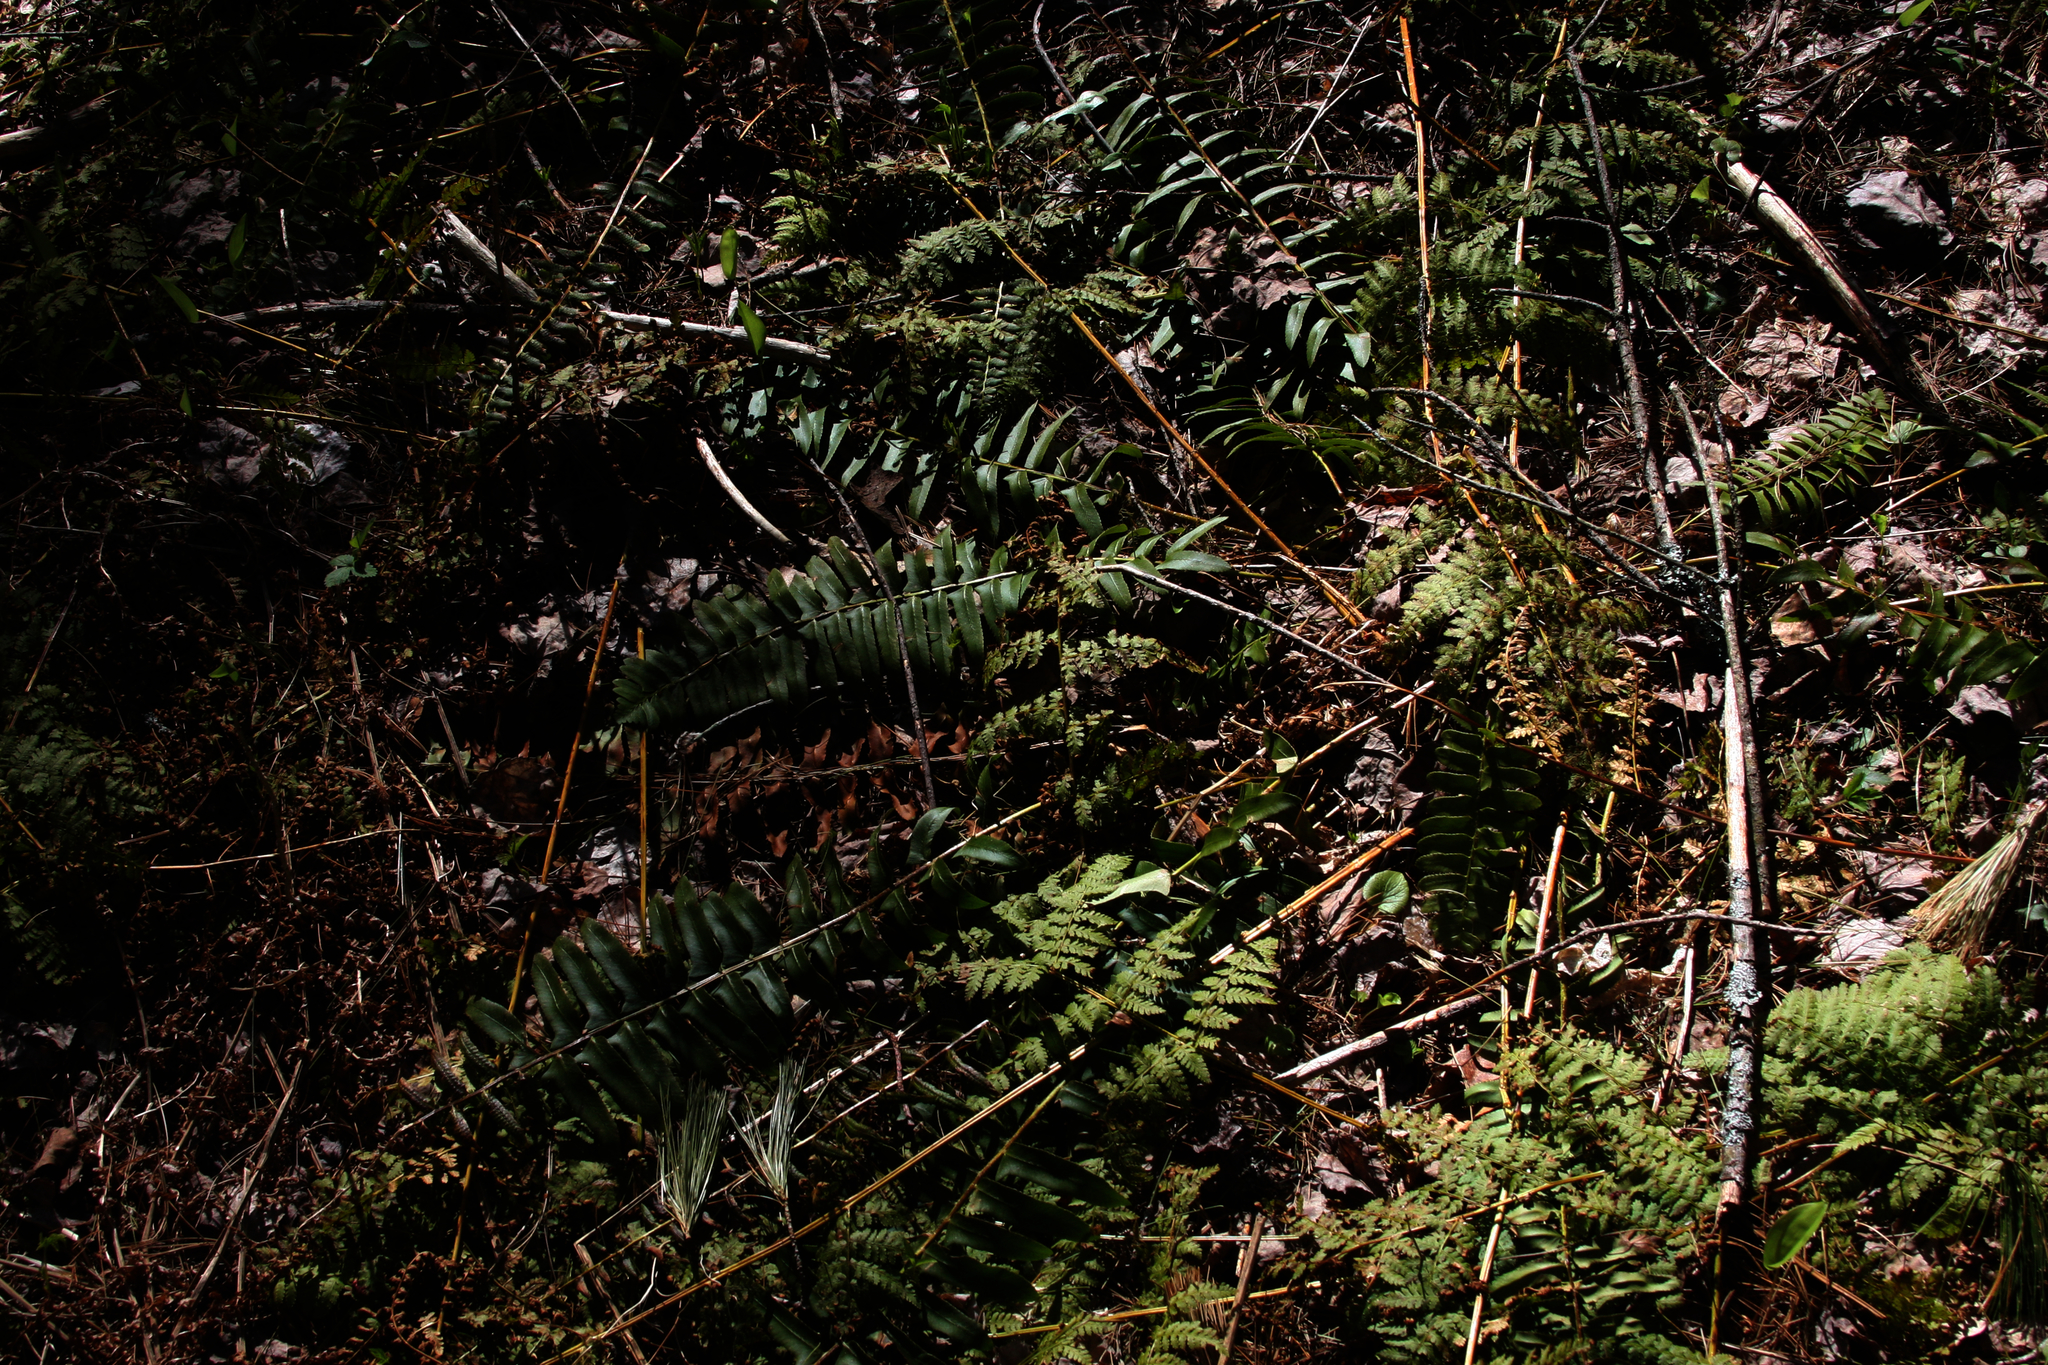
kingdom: Plantae
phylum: Tracheophyta
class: Polypodiopsida
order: Polypodiales
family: Dryopteridaceae
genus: Polystichum
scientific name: Polystichum acrostichoides
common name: Christmas fern
